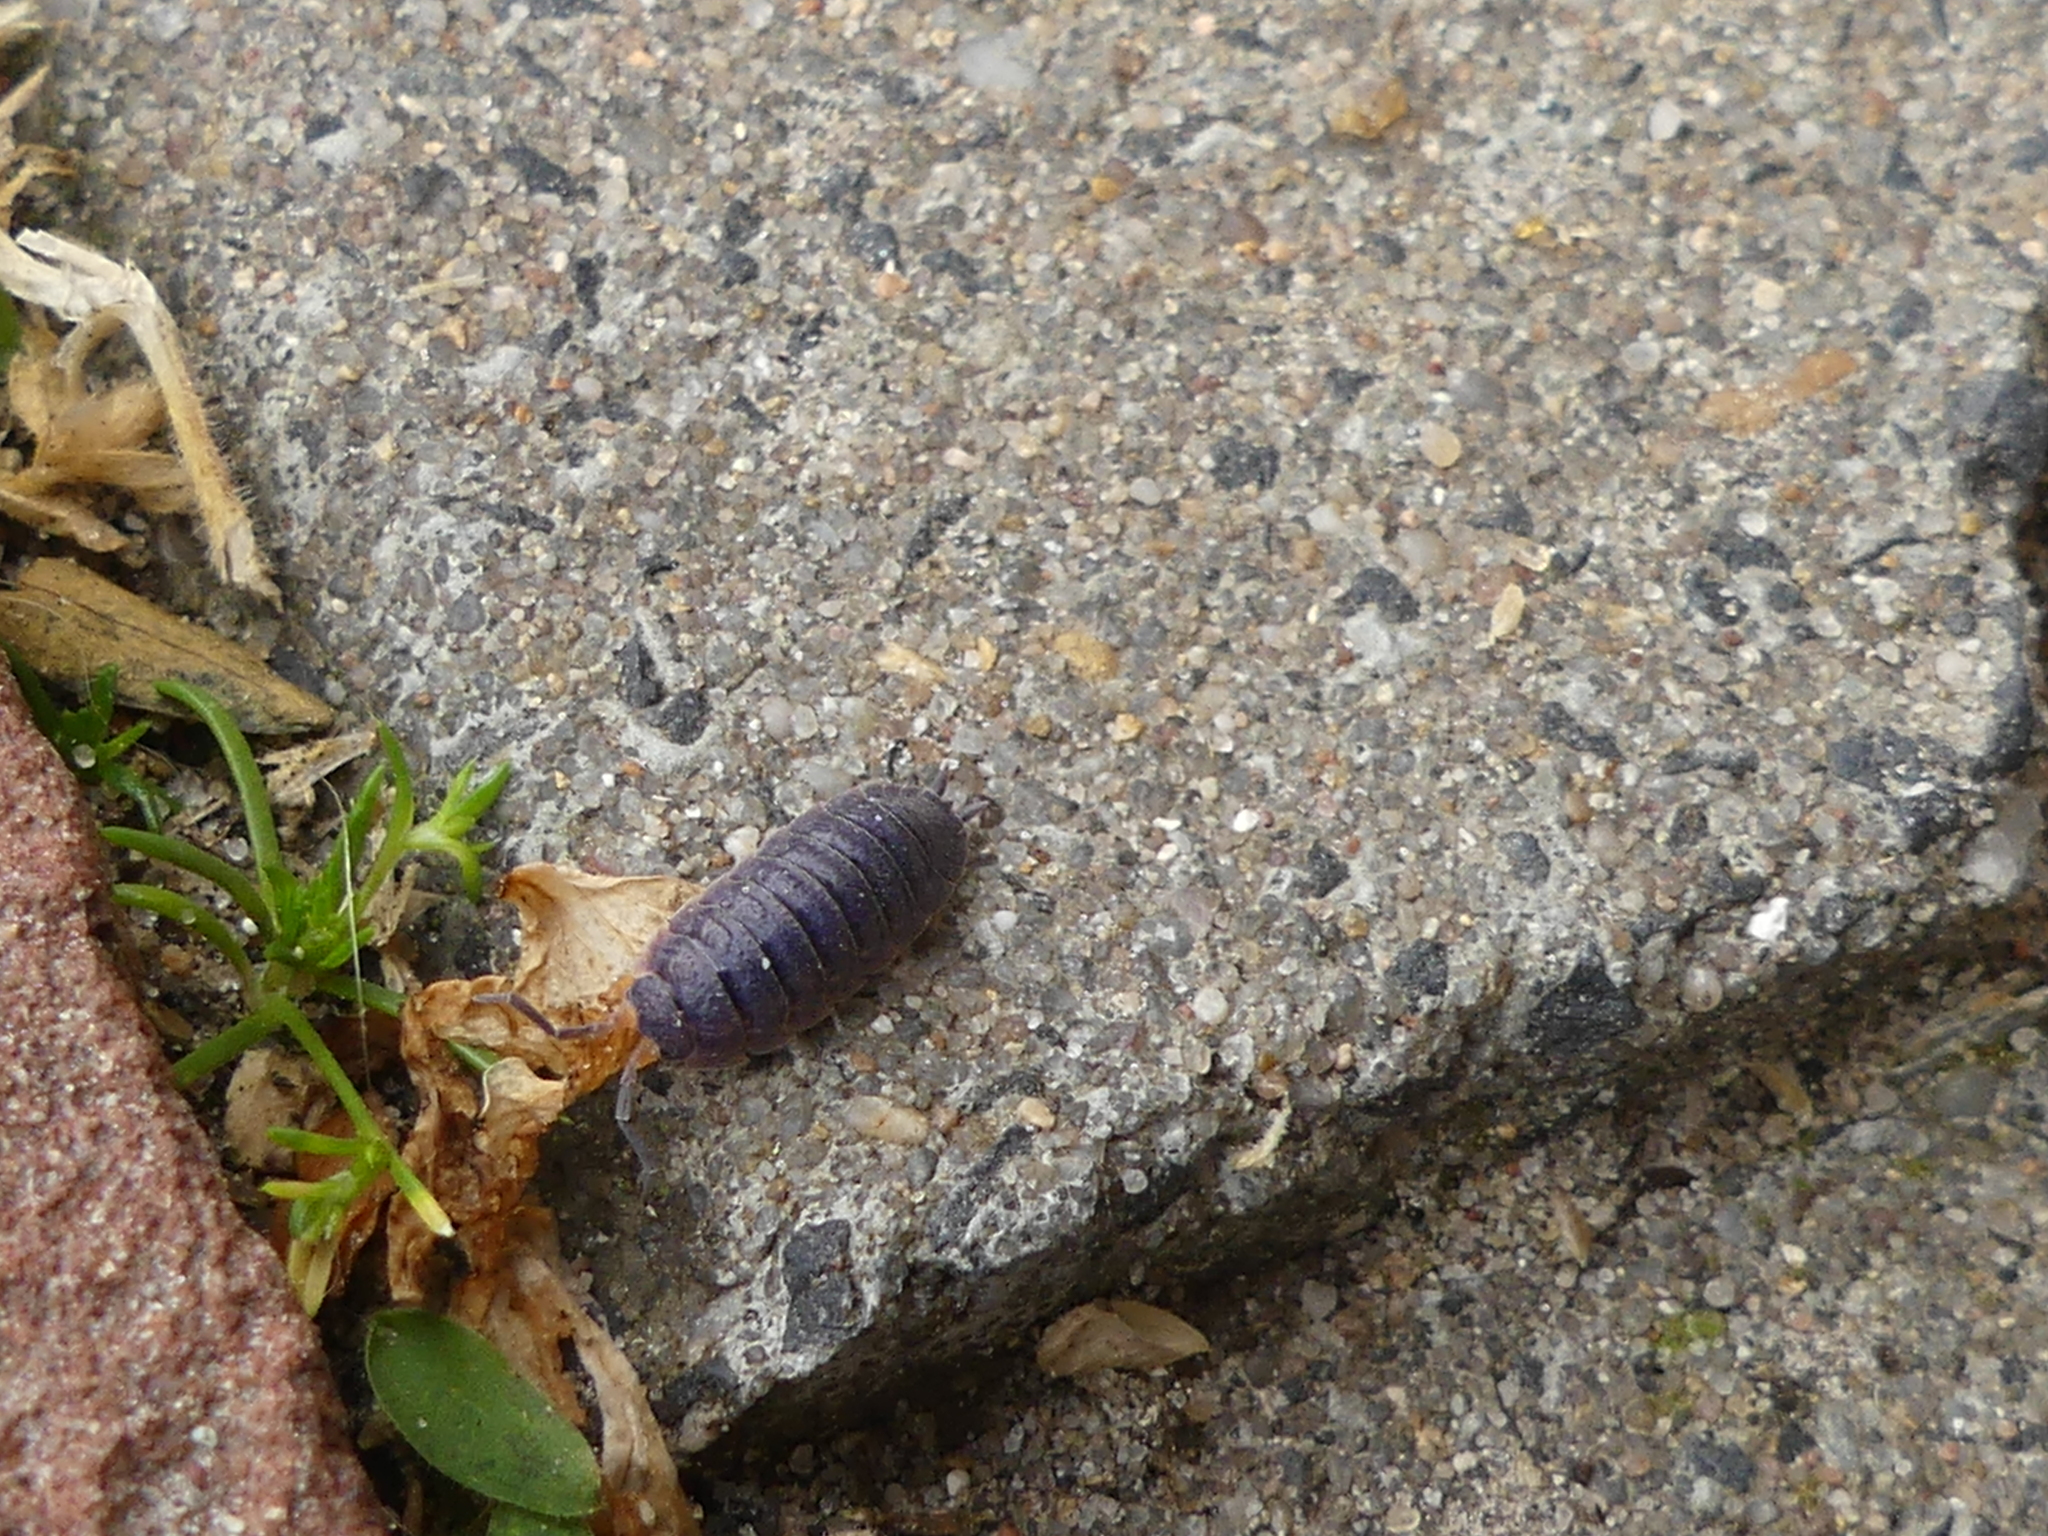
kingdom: Animalia
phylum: Arthropoda
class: Malacostraca
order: Isopoda
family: Porcellionidae
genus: Porcellio
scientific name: Porcellio scaber
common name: Common rough woodlouse
